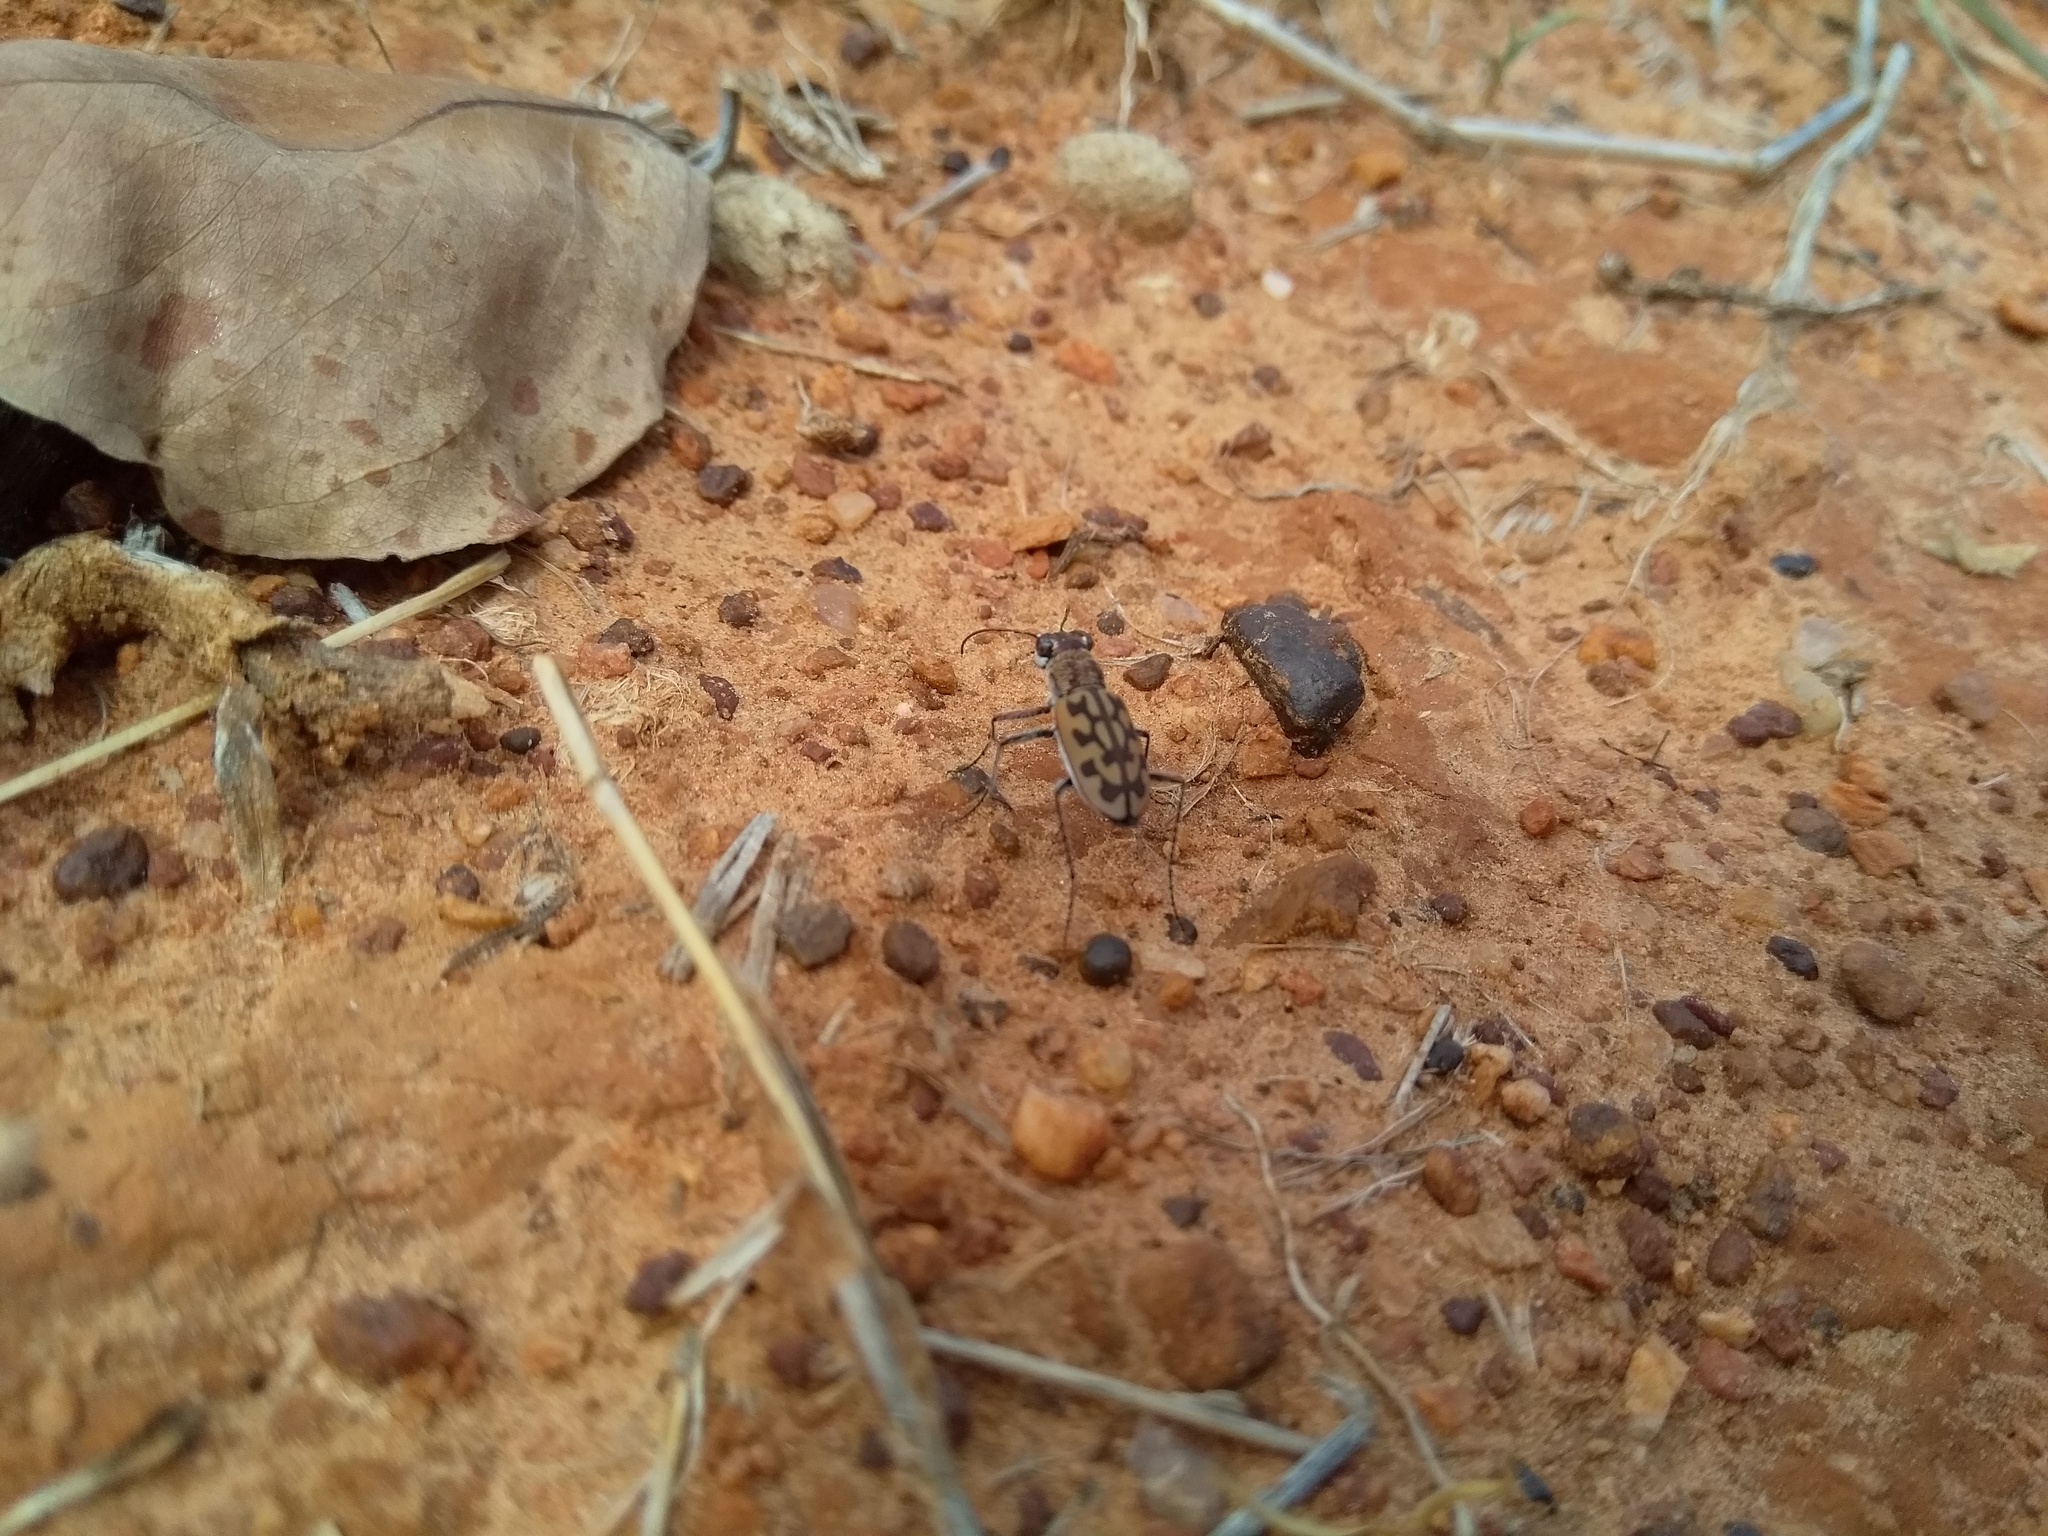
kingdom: Animalia
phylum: Arthropoda
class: Insecta
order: Coleoptera
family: Carabidae
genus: Lophyra
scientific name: Lophyra catena
